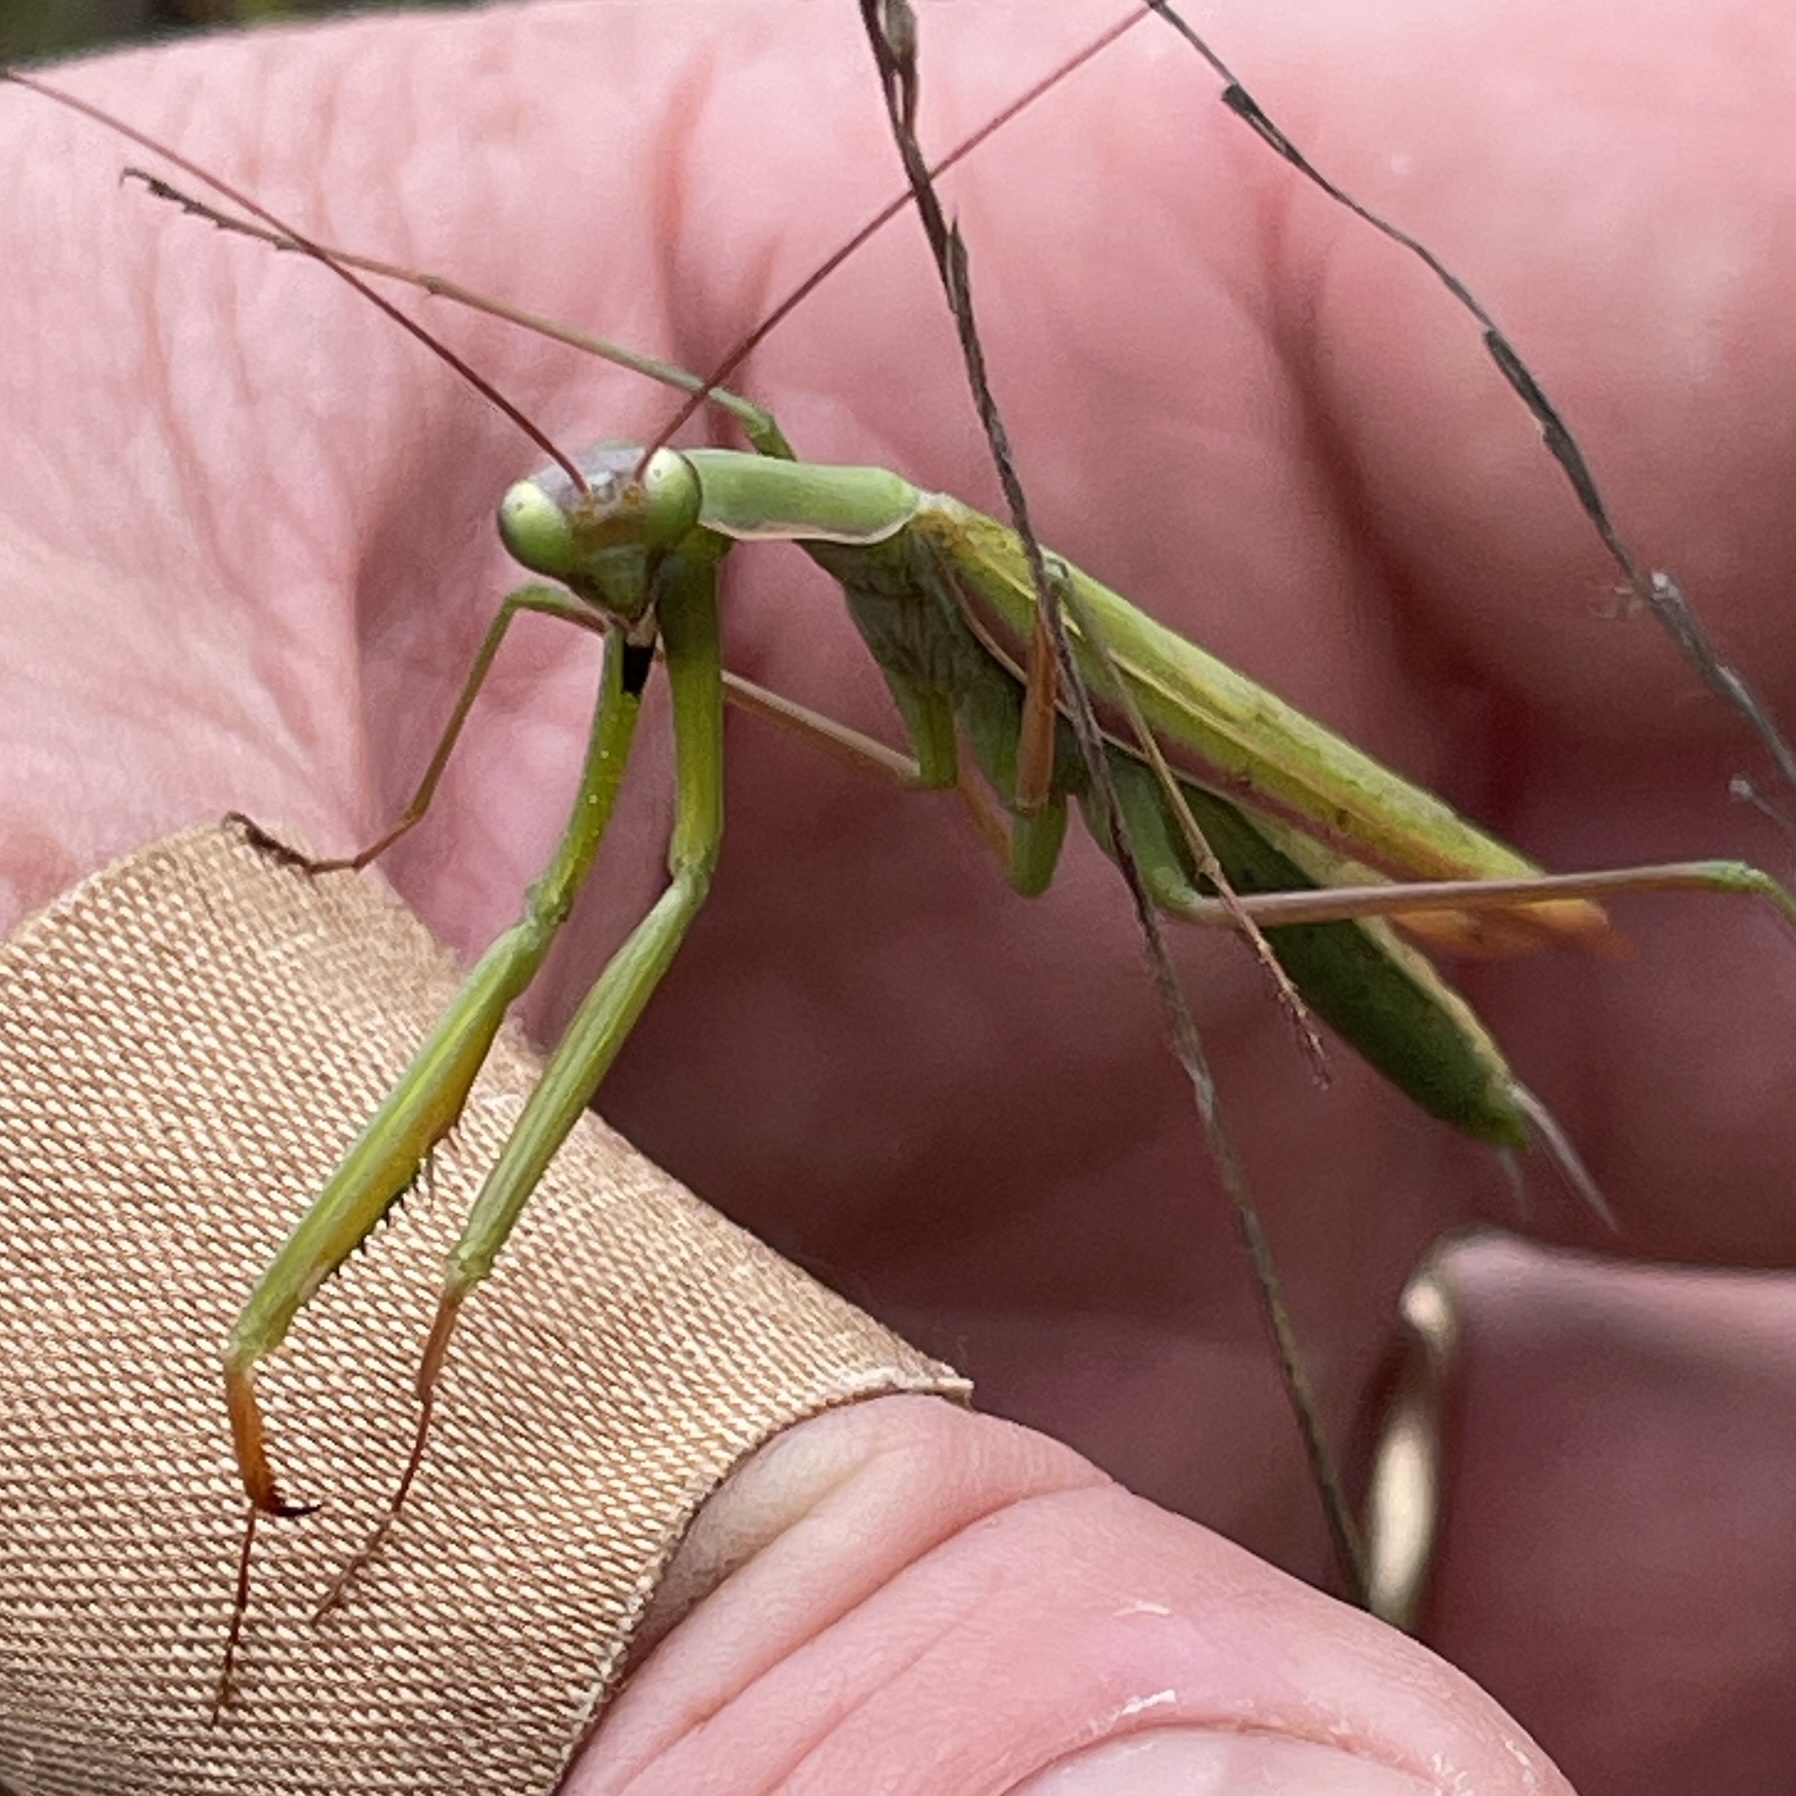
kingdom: Animalia
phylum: Arthropoda
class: Insecta
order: Mantodea
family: Mantidae
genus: Mantis
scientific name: Mantis religiosa
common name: Praying mantis
